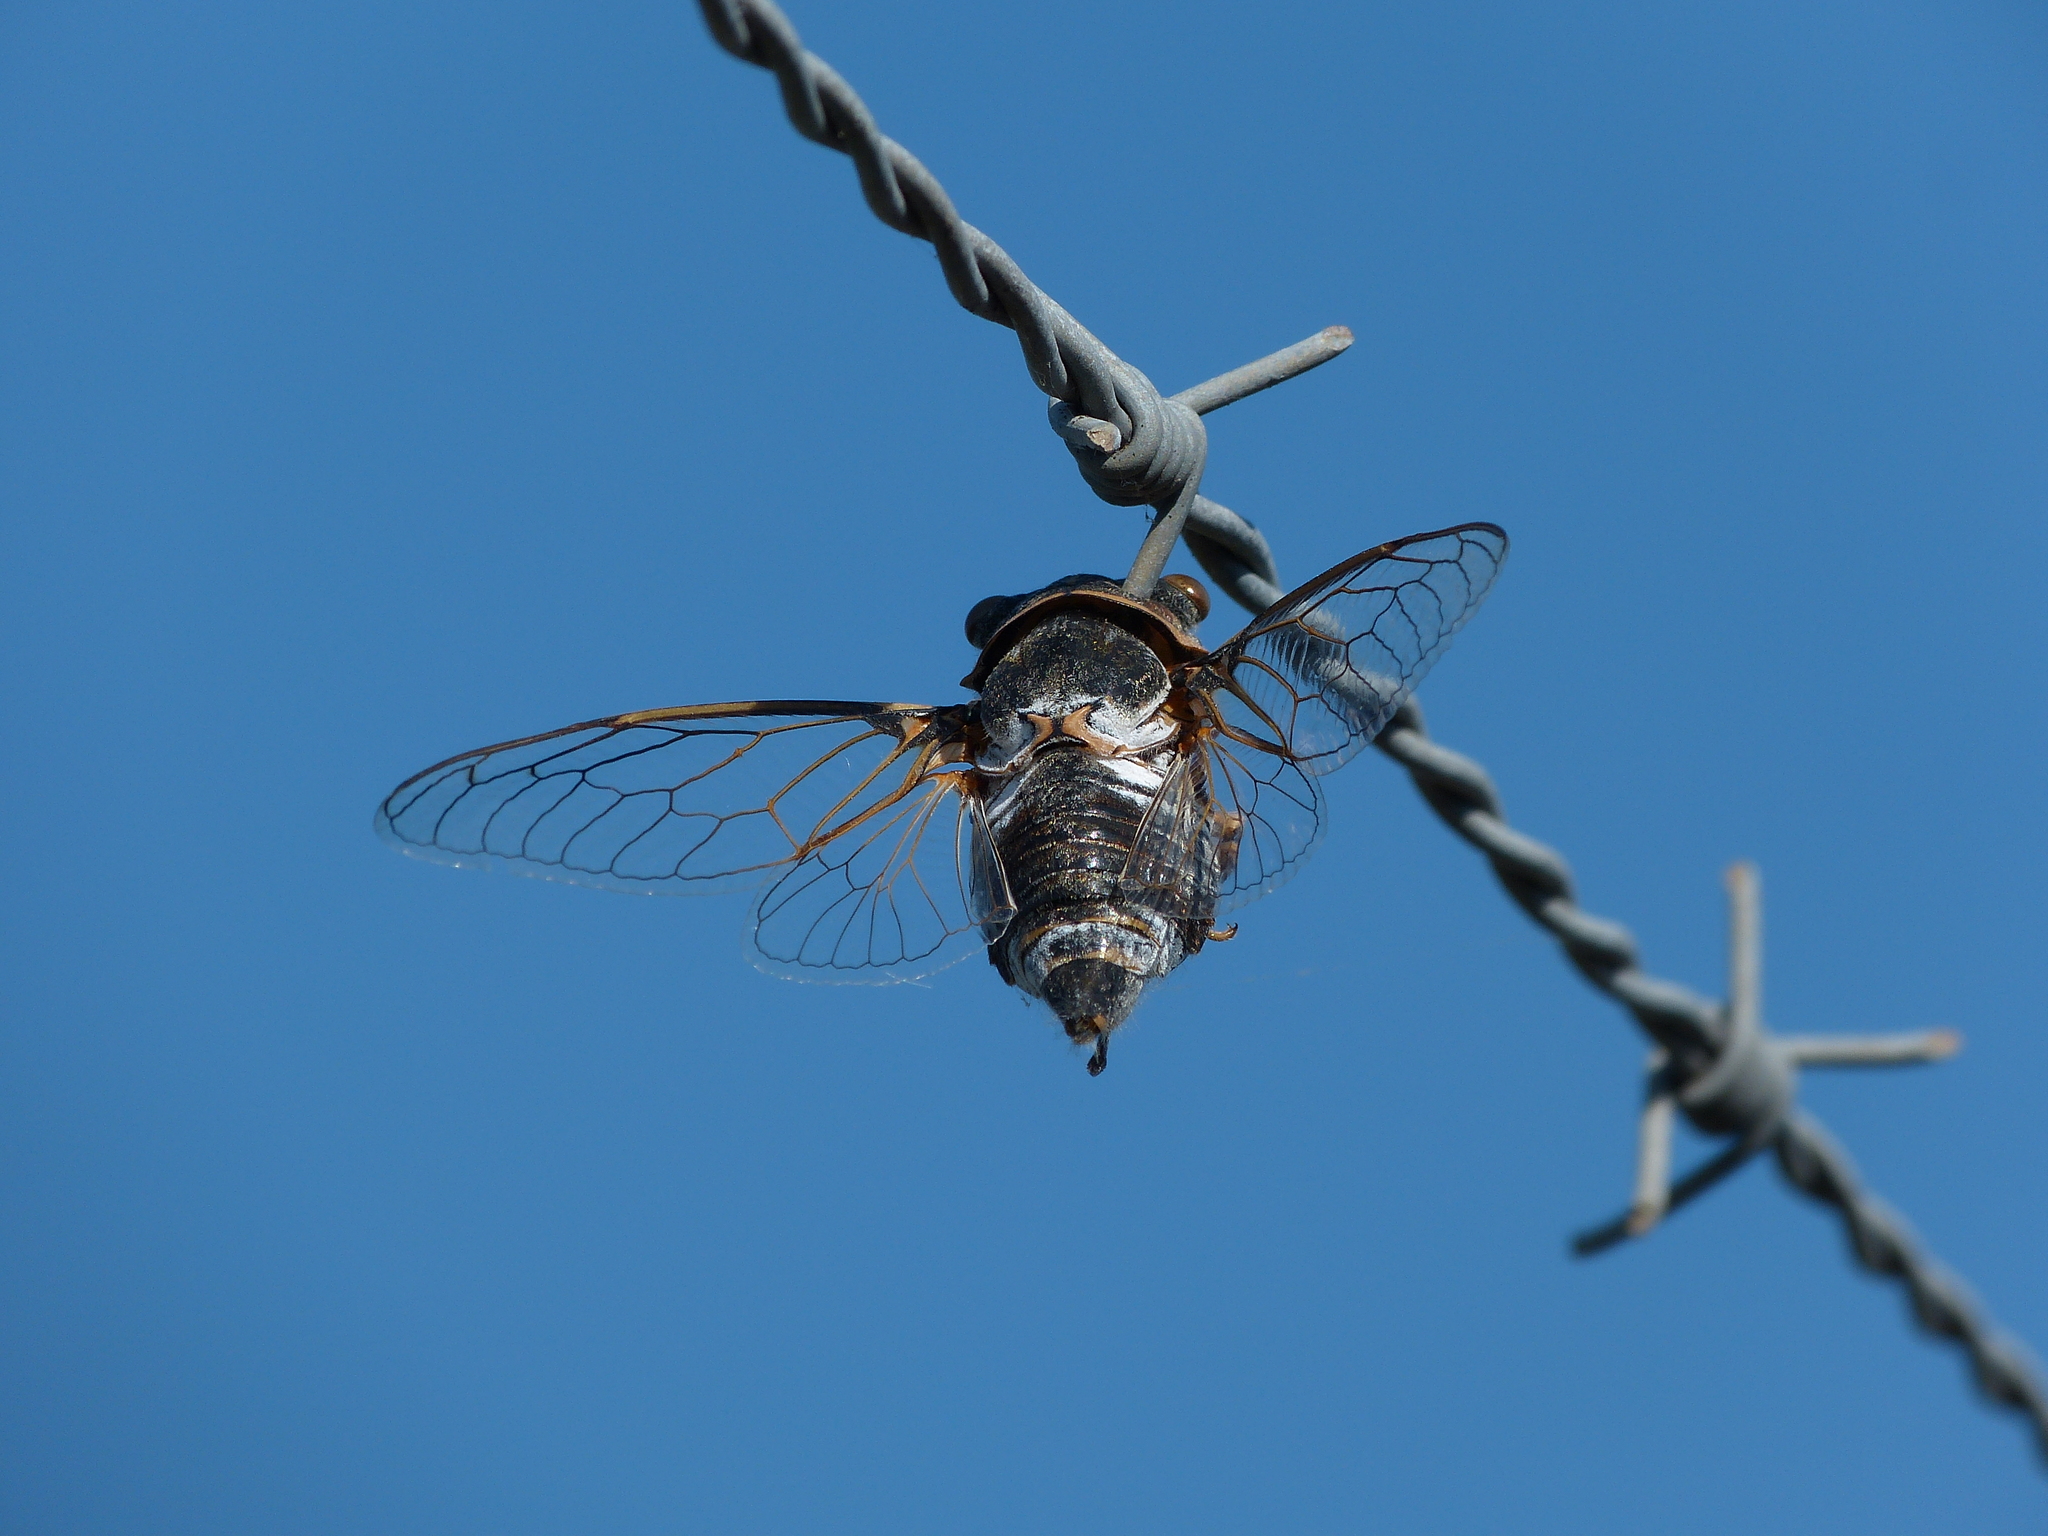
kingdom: Animalia
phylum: Arthropoda
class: Insecta
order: Hemiptera
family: Cicadidae
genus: Lyristes
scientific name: Lyristes plebejus
